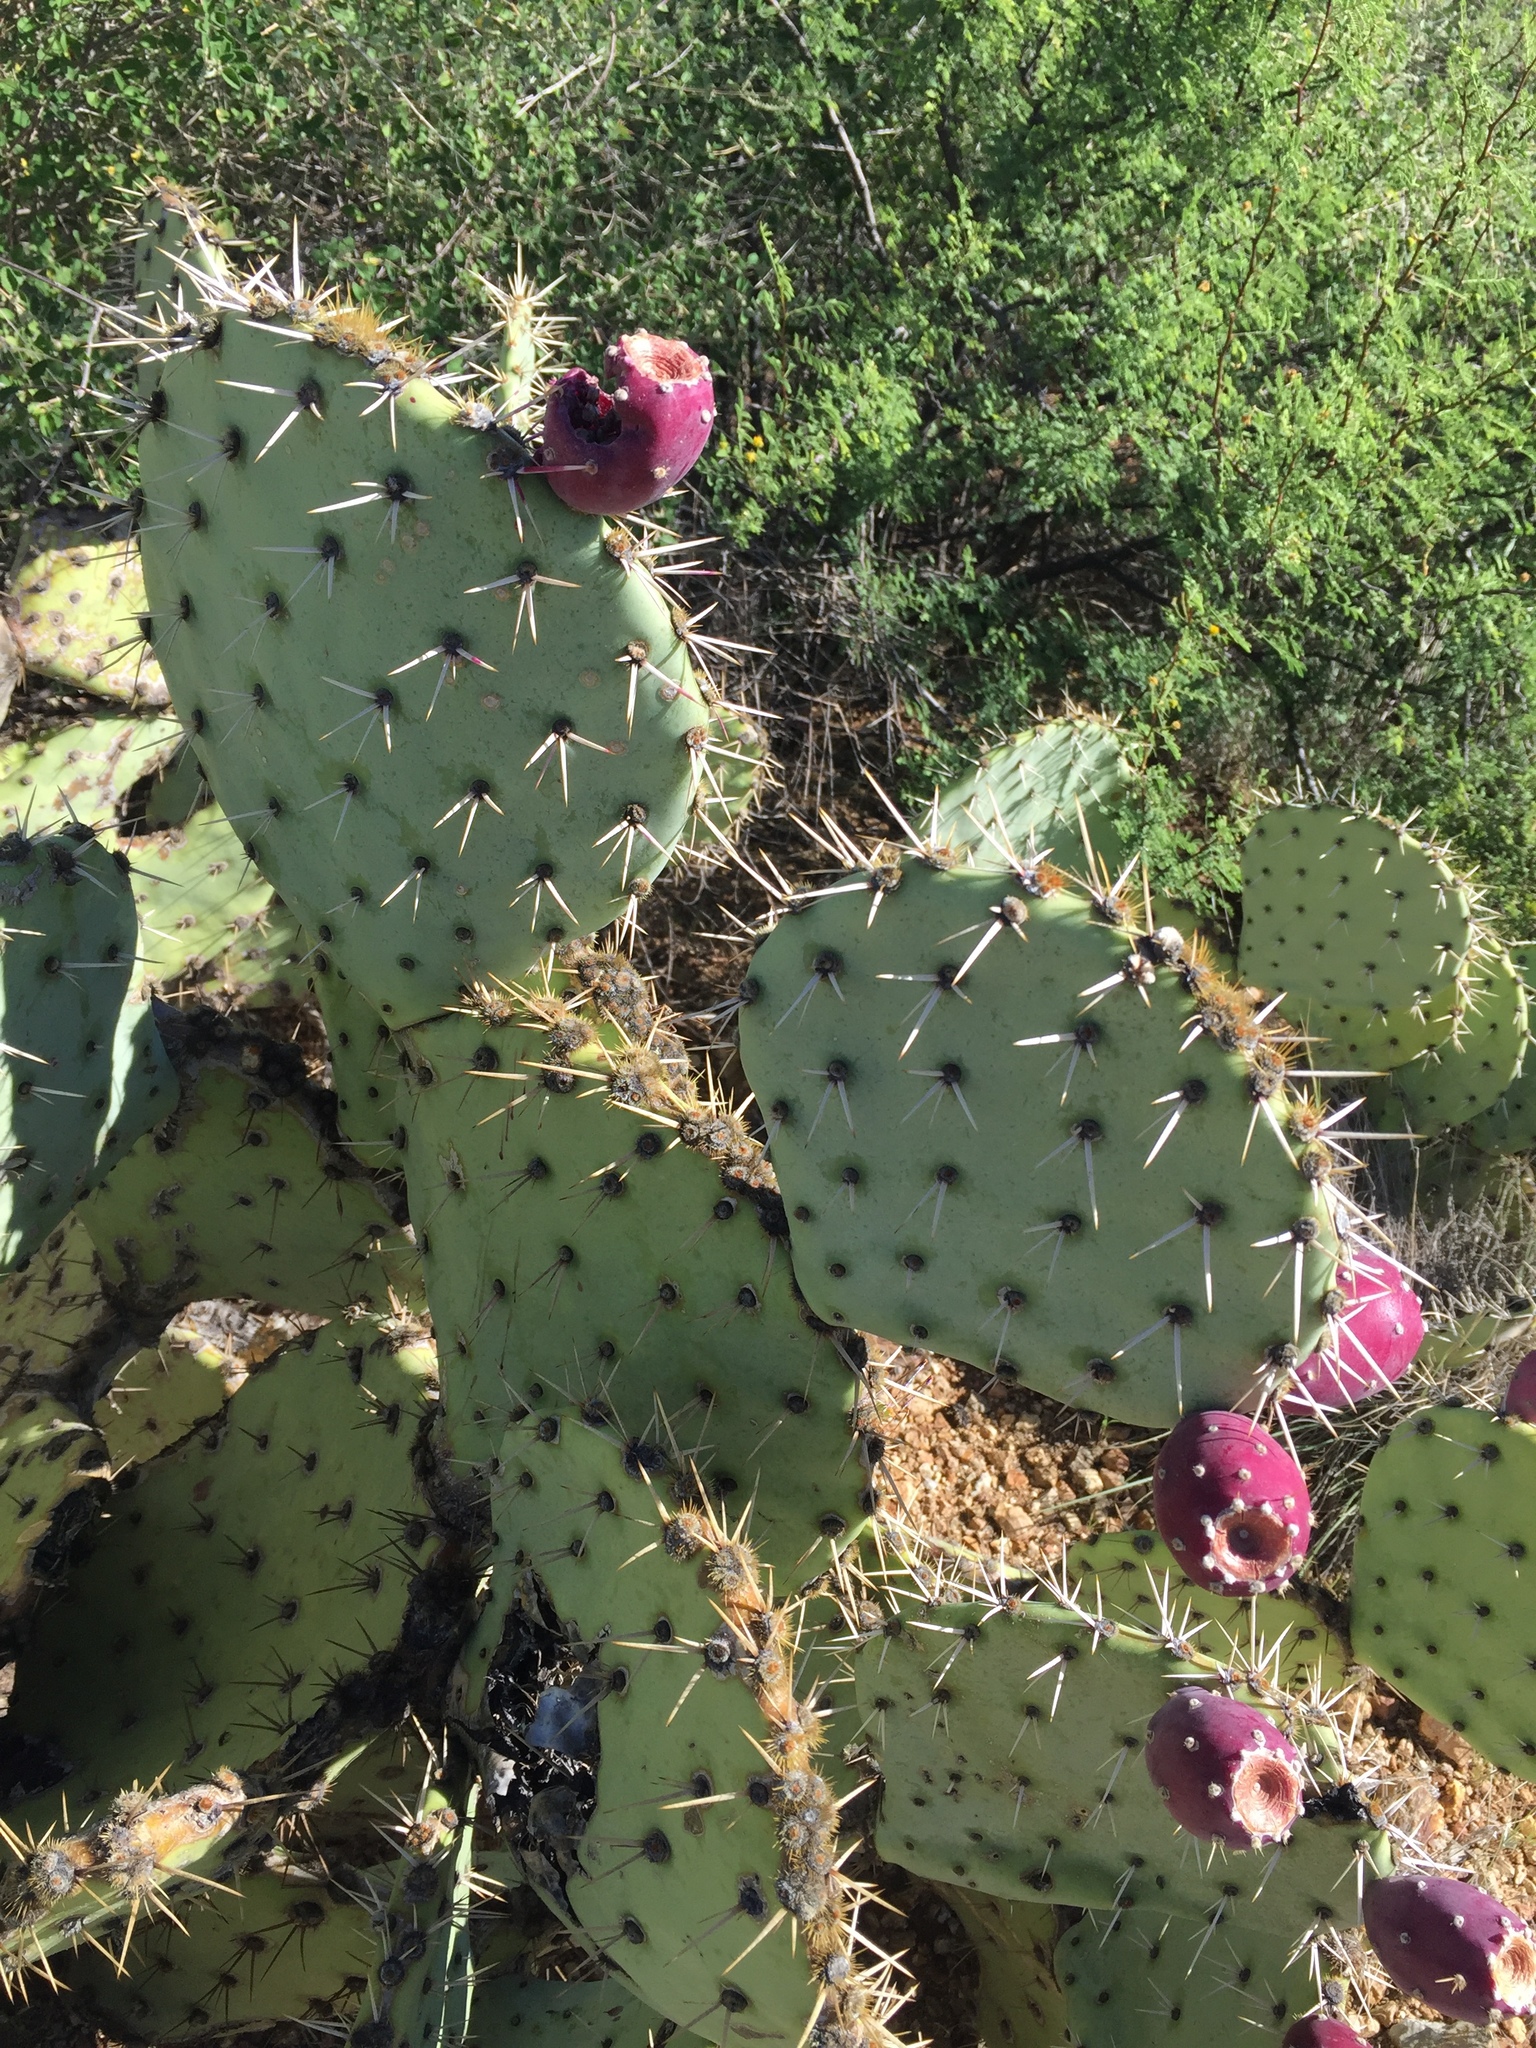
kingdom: Plantae
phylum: Tracheophyta
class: Magnoliopsida
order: Caryophyllales
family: Cactaceae
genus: Opuntia
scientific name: Opuntia engelmannii
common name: Cactus-apple
